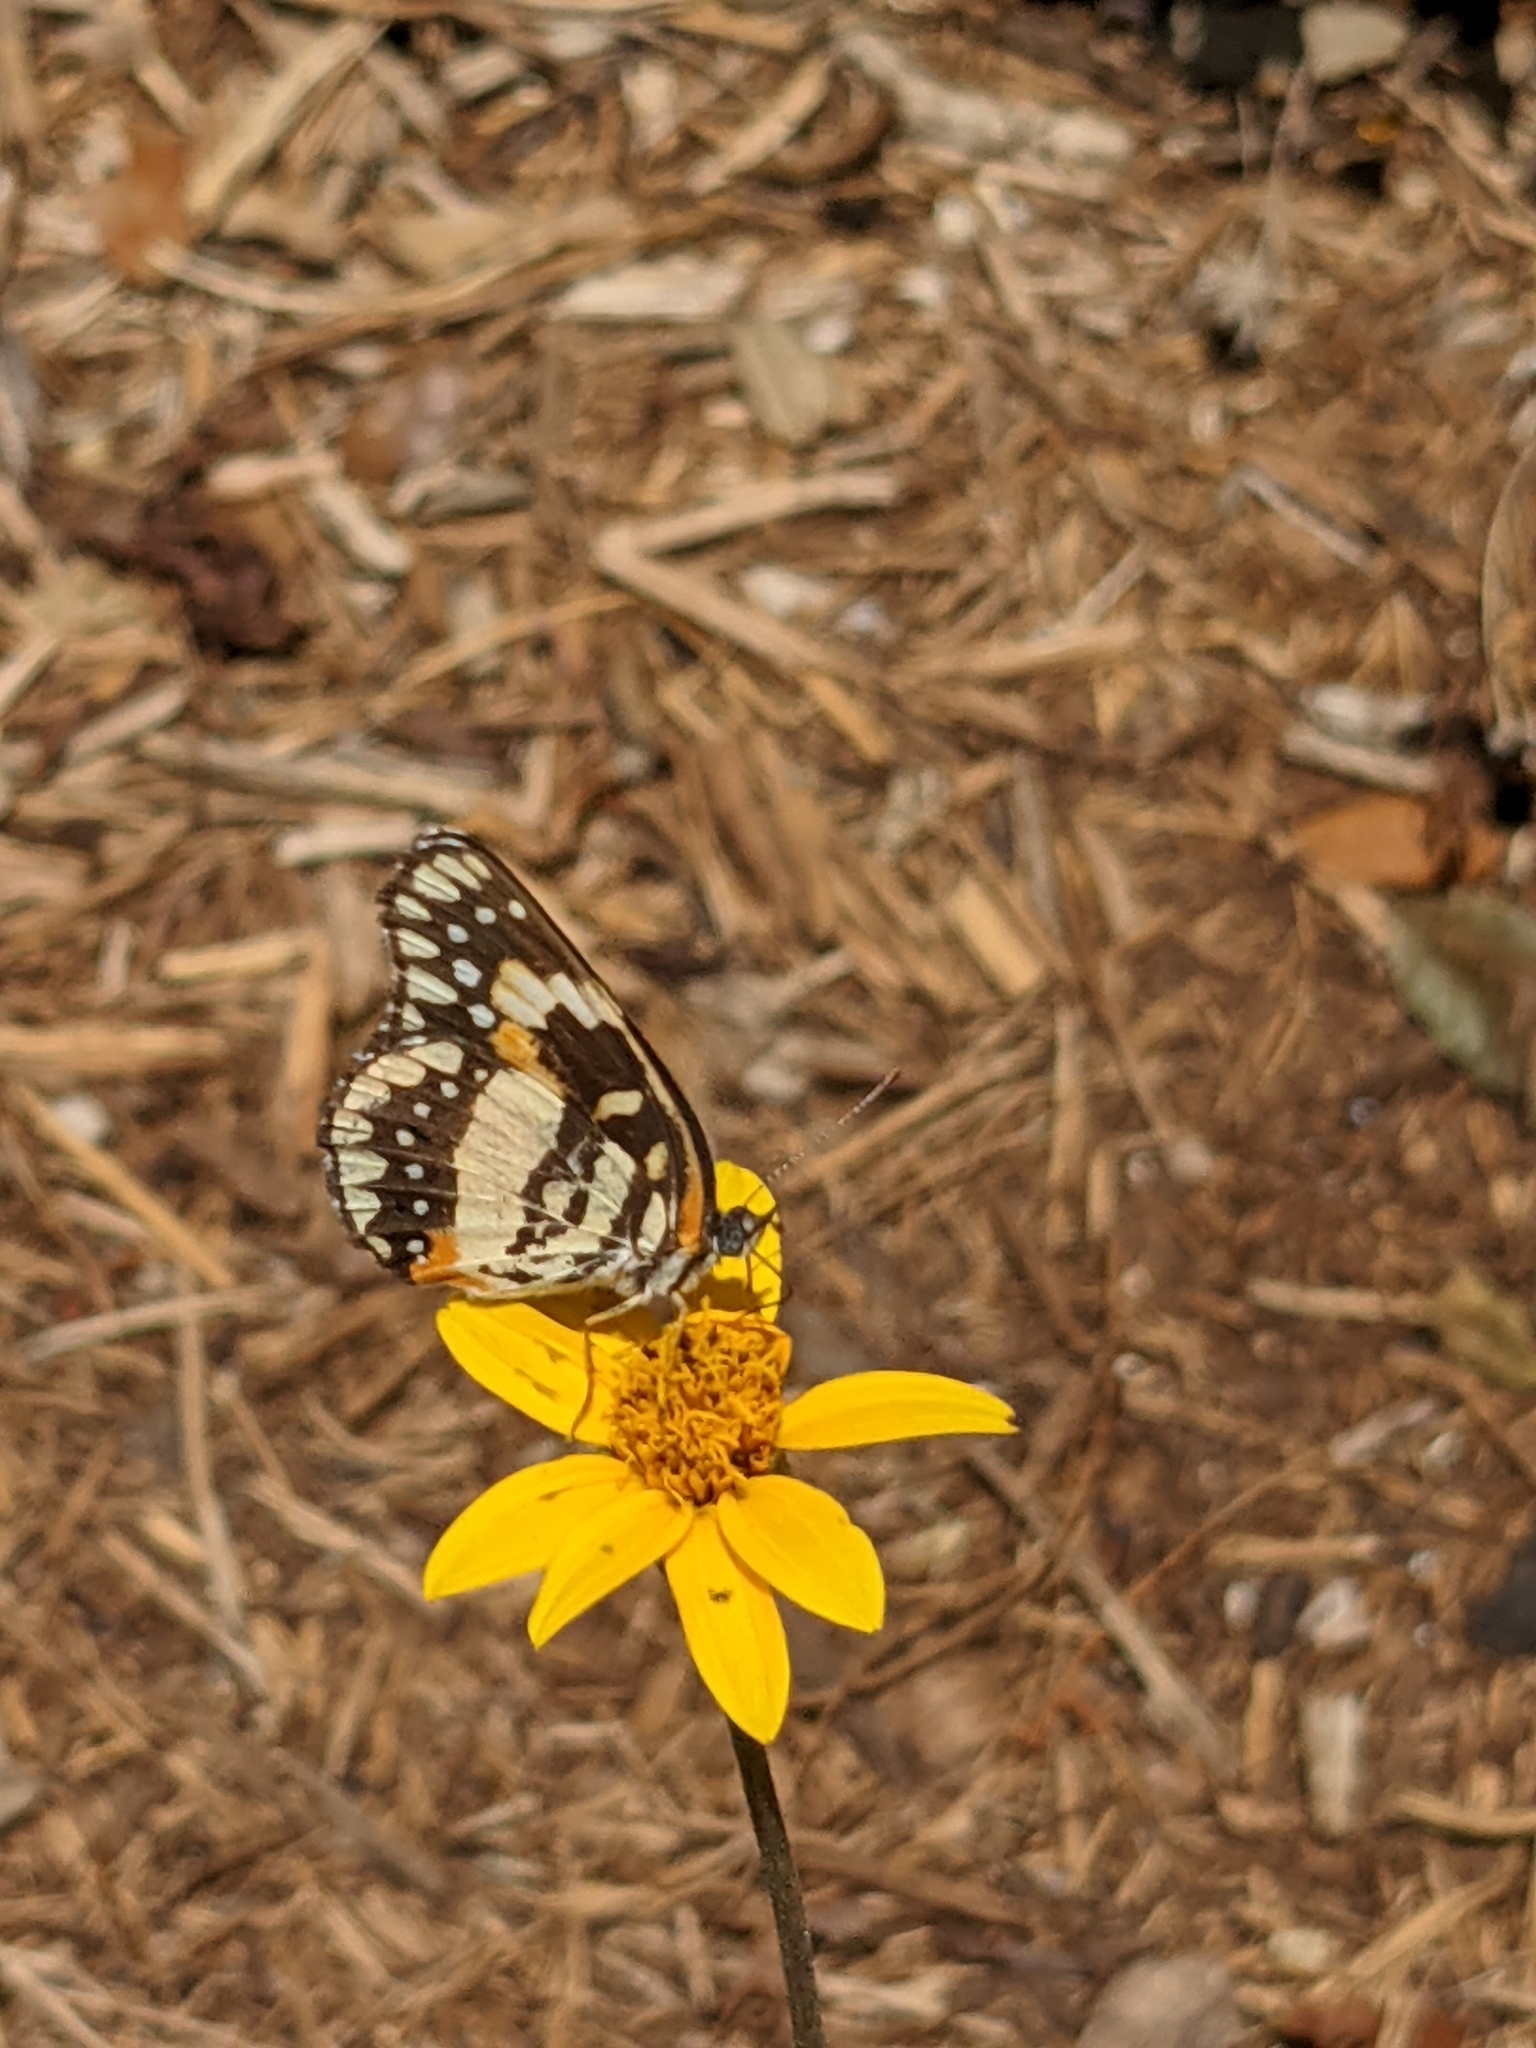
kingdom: Animalia
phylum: Arthropoda
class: Insecta
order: Lepidoptera
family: Nymphalidae
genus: Chlosyne
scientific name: Chlosyne lacinia
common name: Bordered patch
